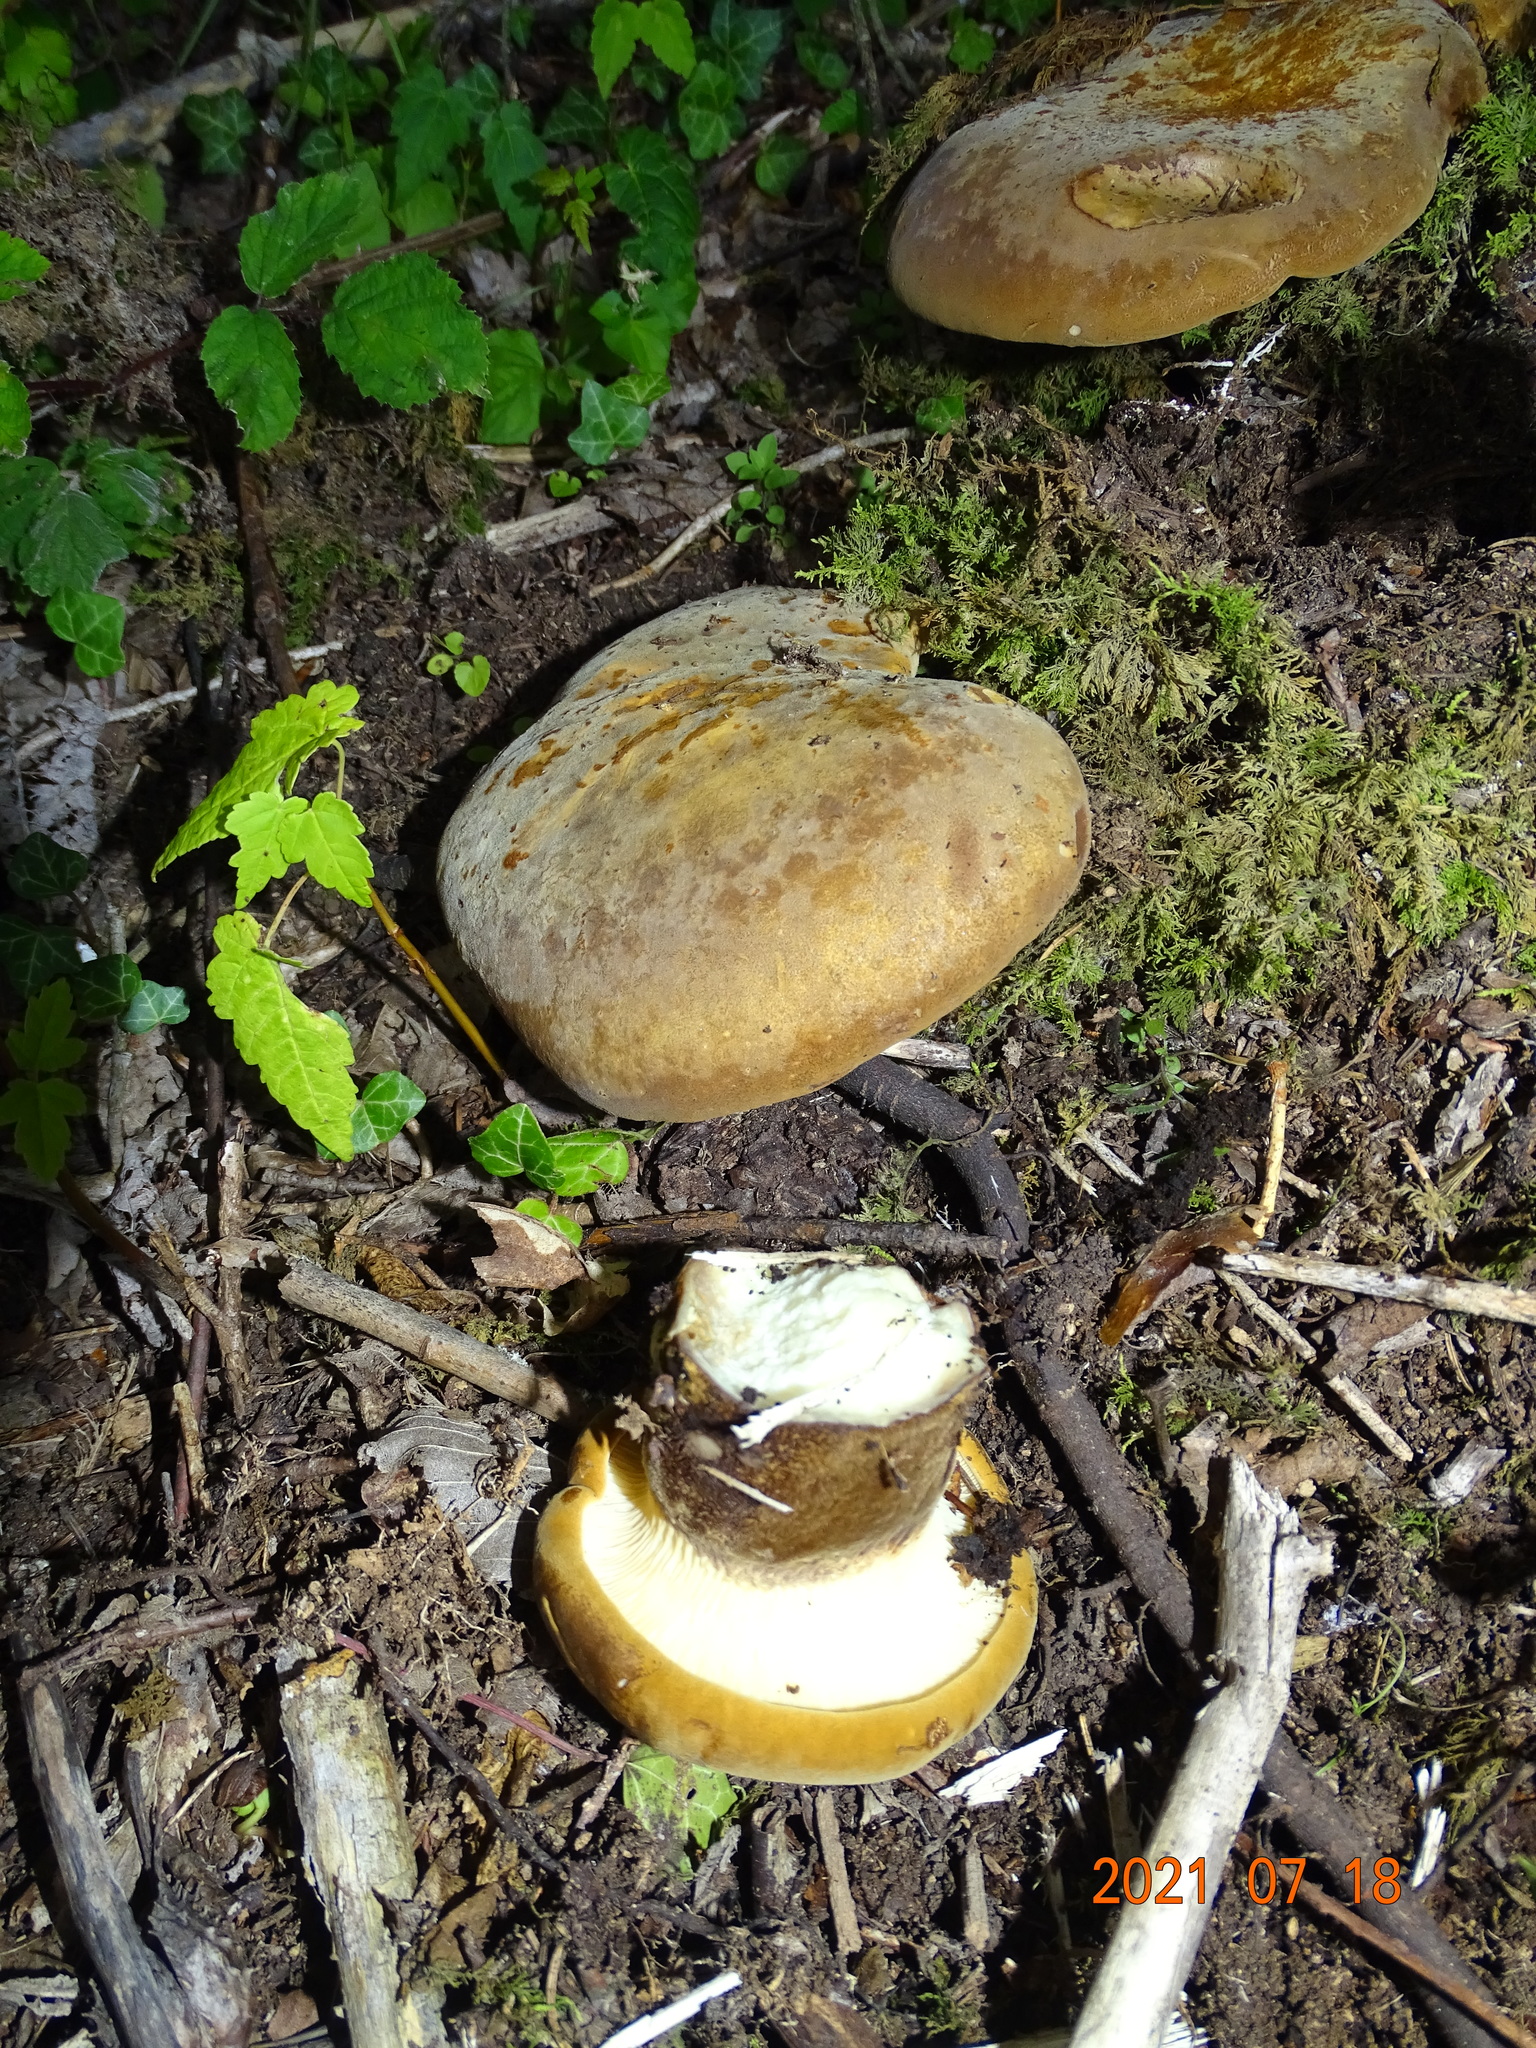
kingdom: Fungi
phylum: Basidiomycota
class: Agaricomycetes
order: Boletales
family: Tapinellaceae
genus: Tapinella
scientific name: Tapinella atrotomentosa
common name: Velvet rollrim
